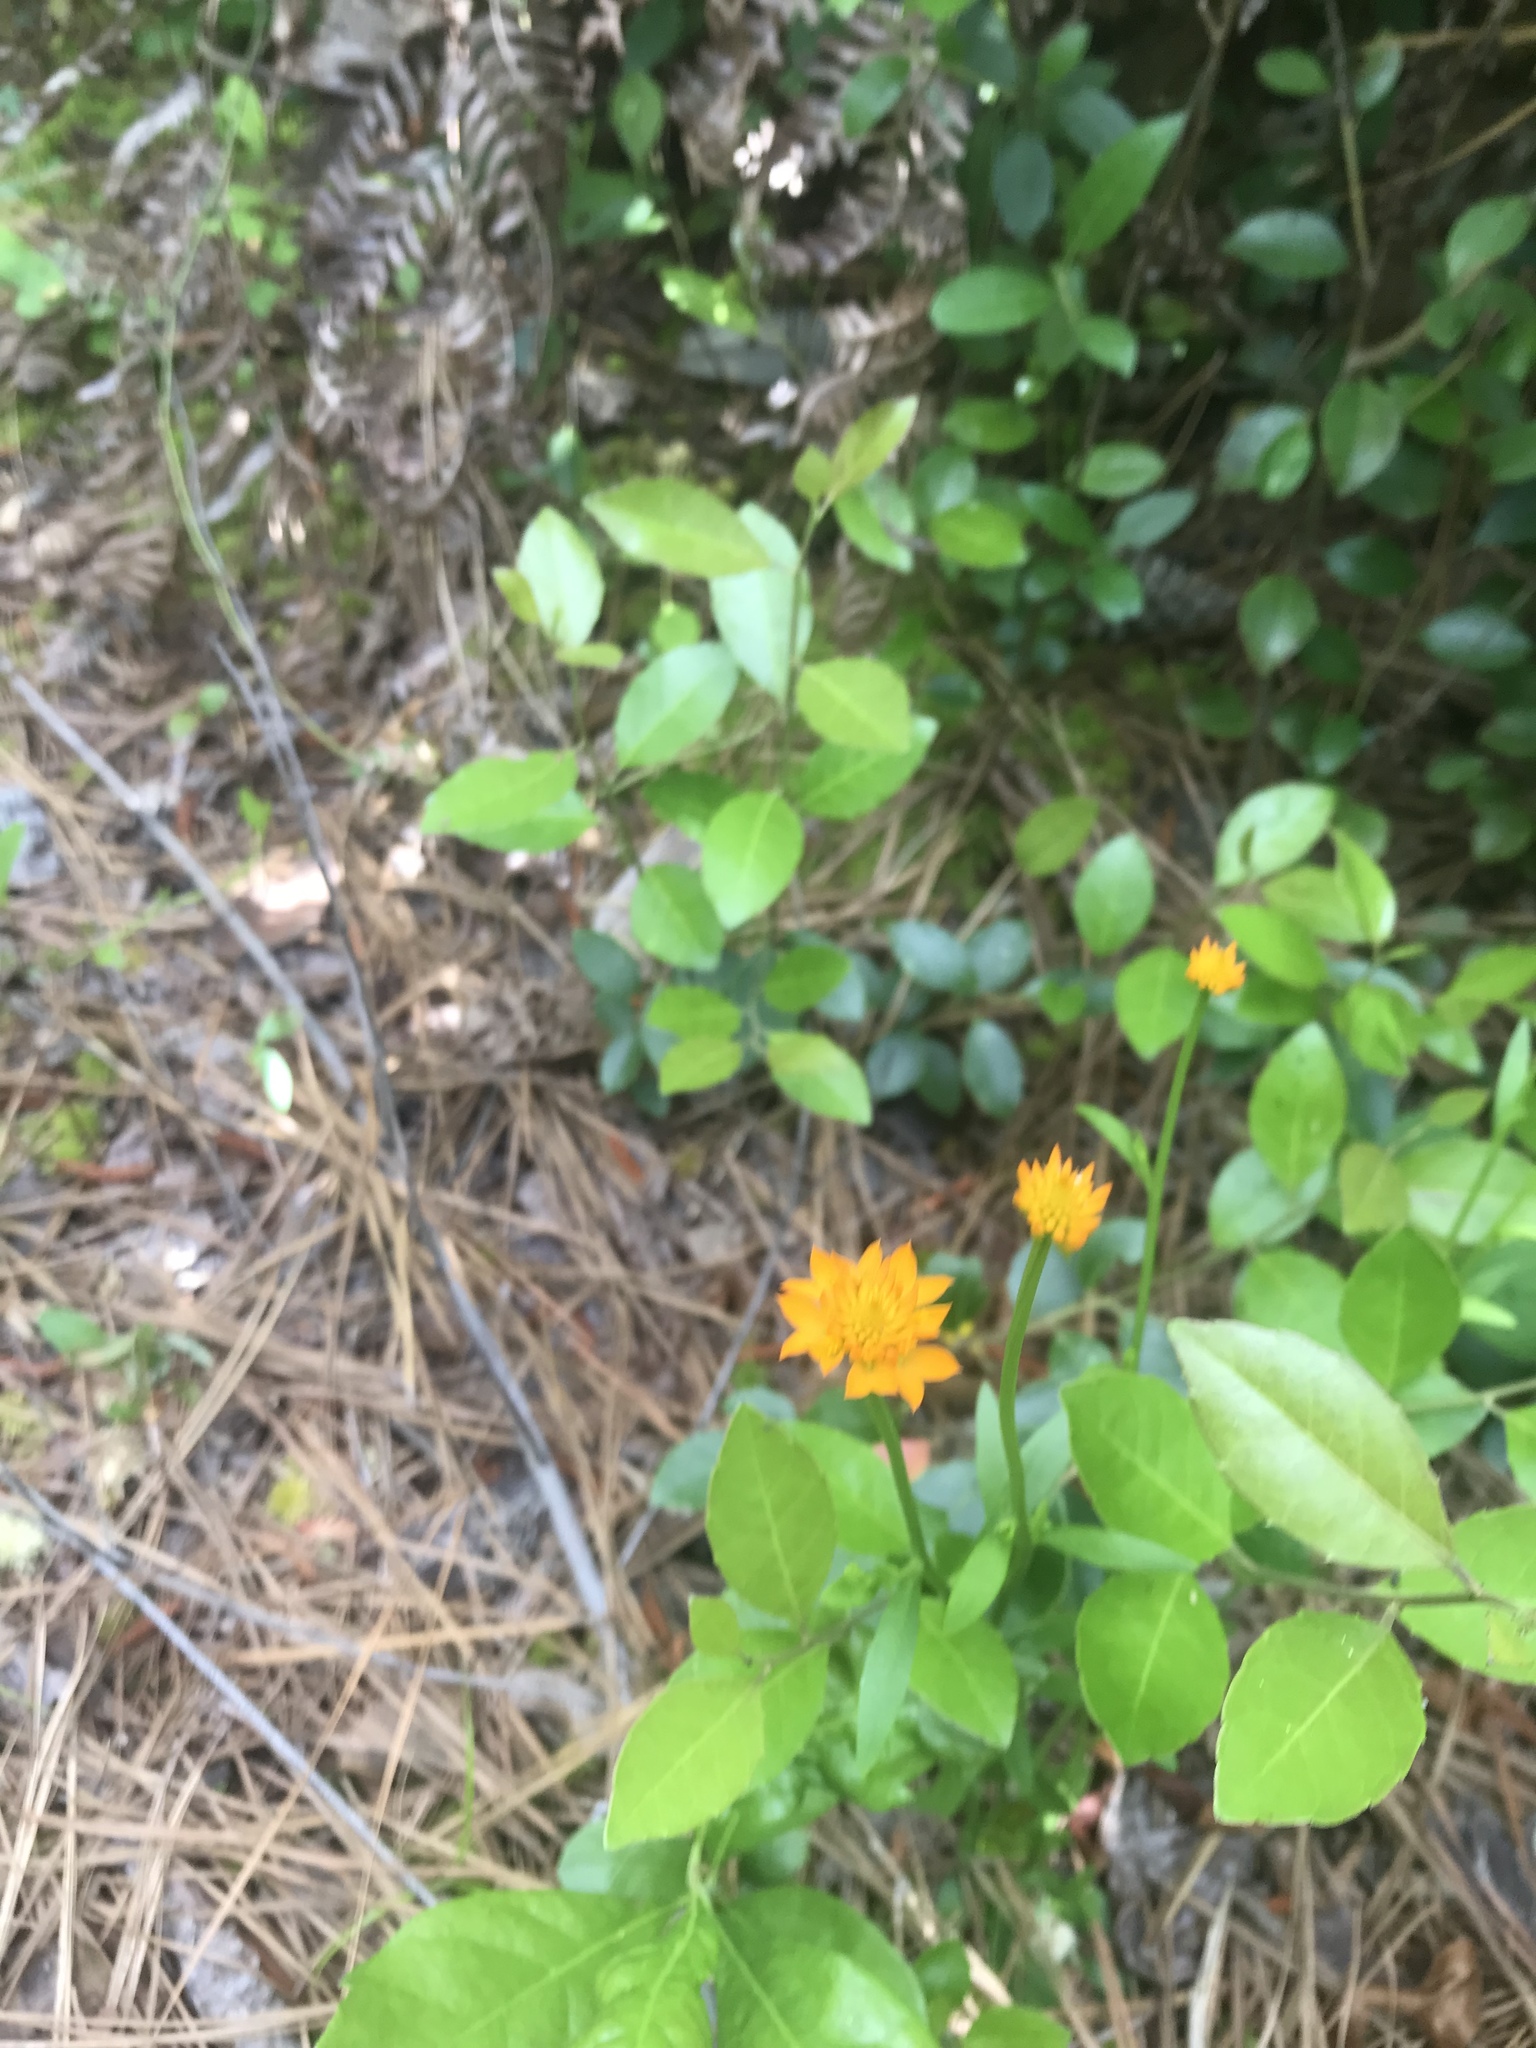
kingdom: Plantae
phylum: Tracheophyta
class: Magnoliopsida
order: Fabales
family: Polygalaceae
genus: Polygala
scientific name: Polygala lutea
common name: Orange milkwort
